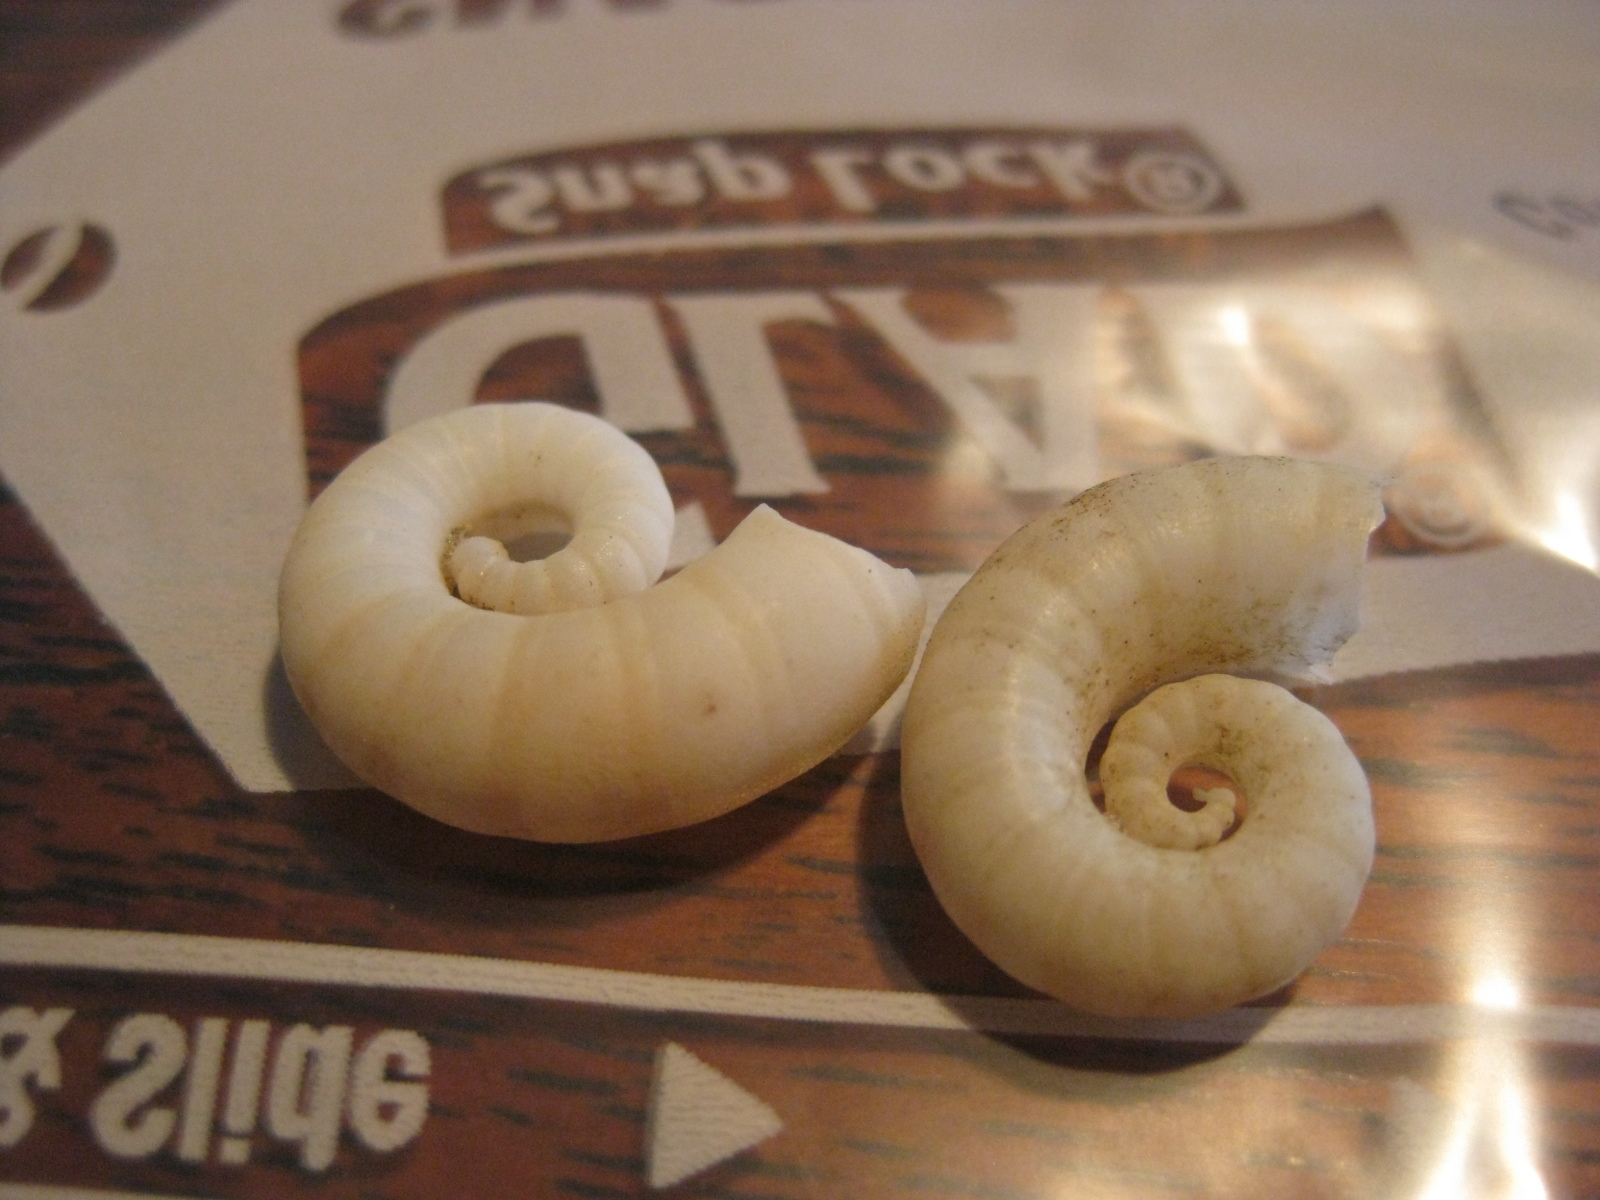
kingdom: Animalia
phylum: Mollusca
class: Cephalopoda
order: Spirulida
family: Spirulidae
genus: Spirula
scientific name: Spirula spirula
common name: Ram's horn squid
